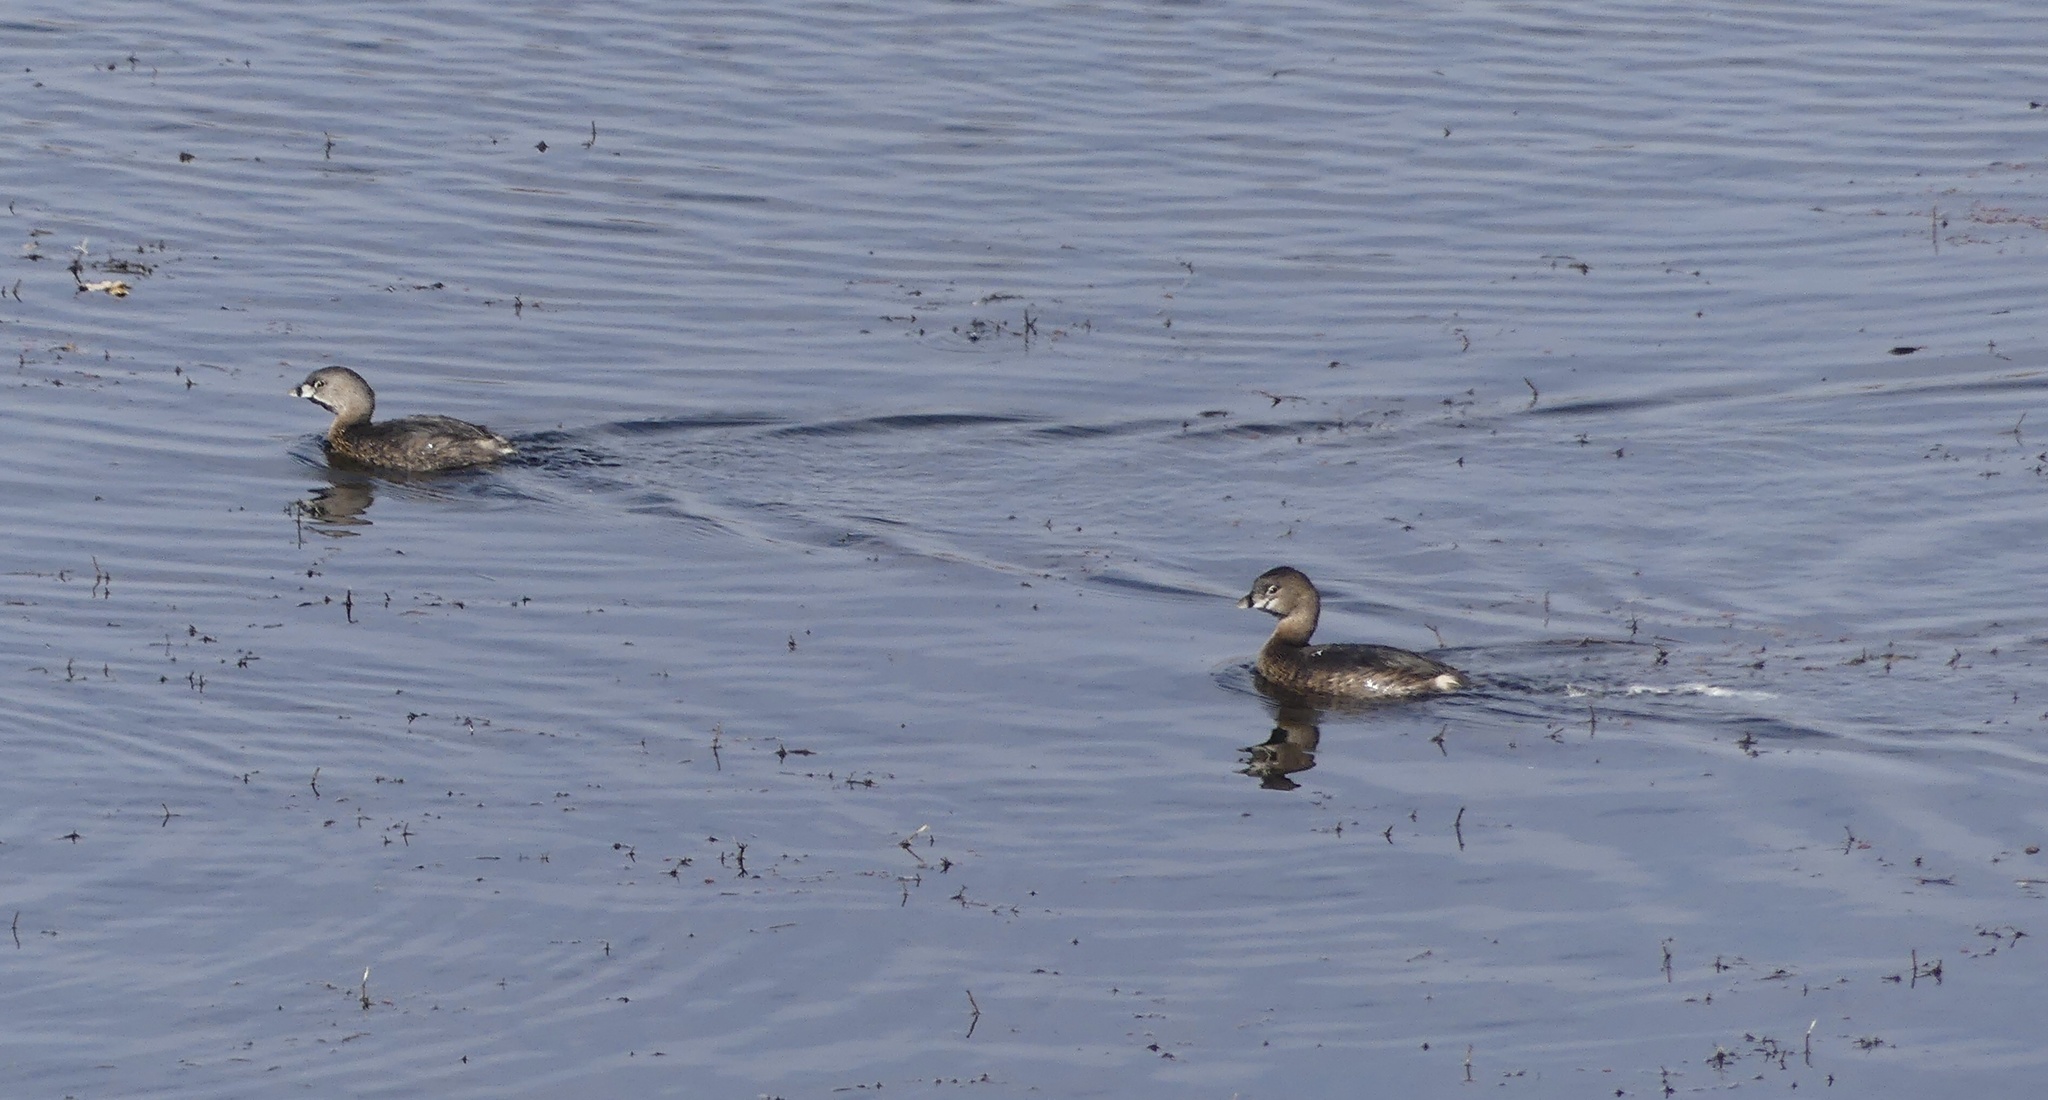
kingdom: Animalia
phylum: Chordata
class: Aves
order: Podicipediformes
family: Podicipedidae
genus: Podilymbus
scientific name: Podilymbus podiceps
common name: Pied-billed grebe
